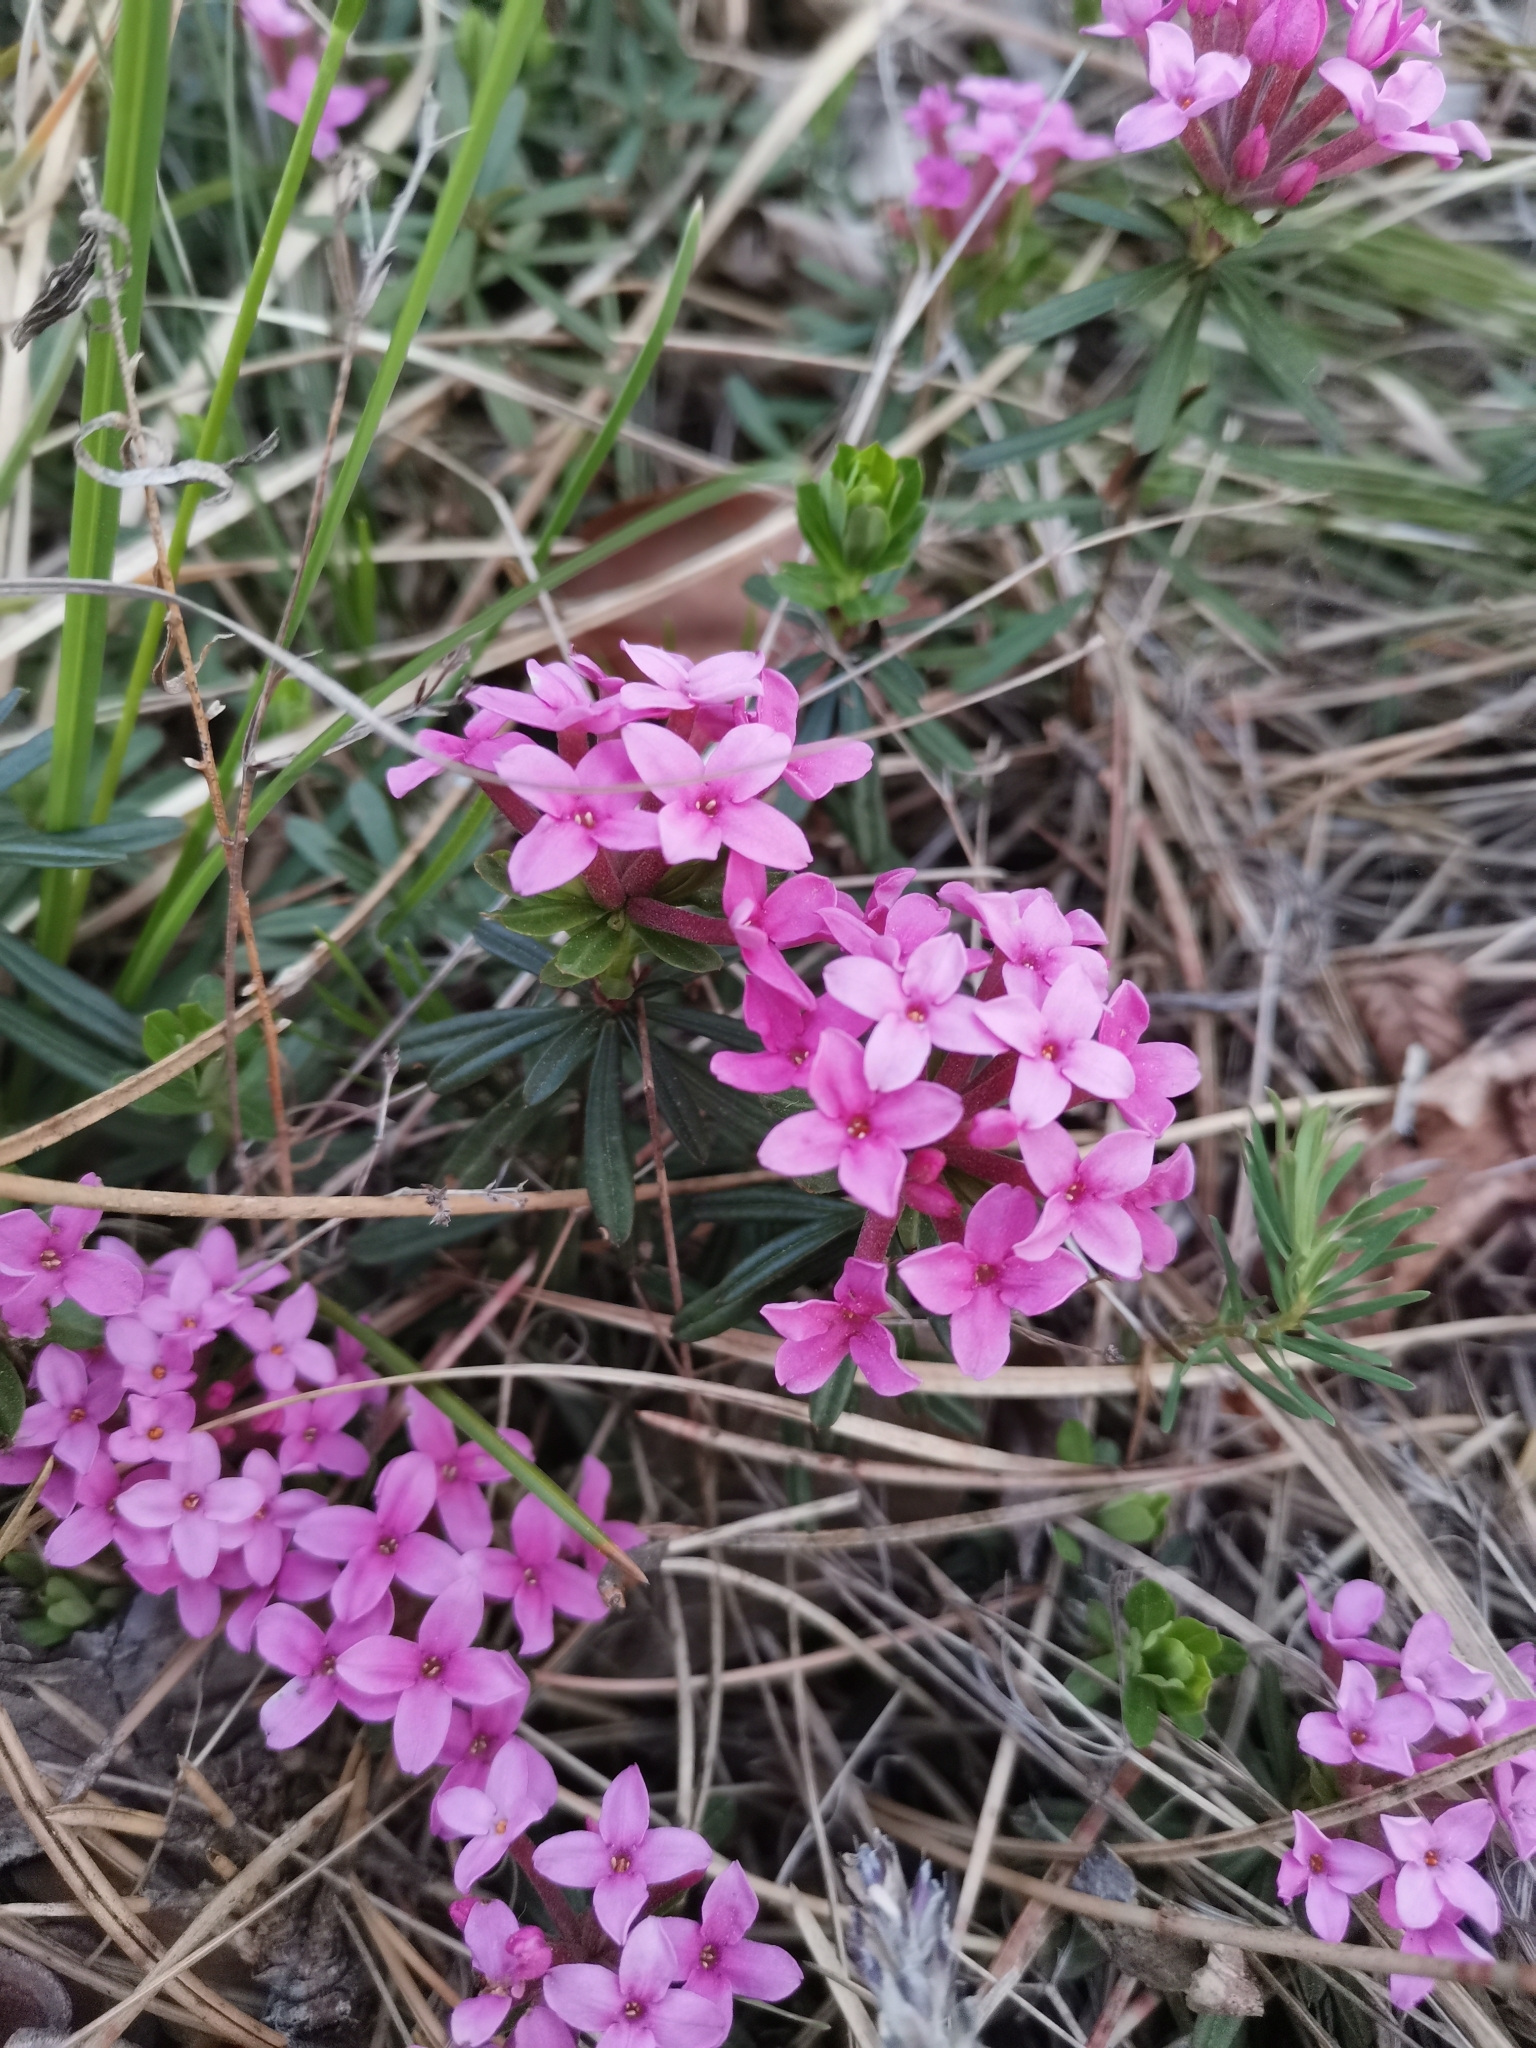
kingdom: Plantae
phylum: Tracheophyta
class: Magnoliopsida
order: Malvales
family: Thymelaeaceae
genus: Daphne
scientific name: Daphne cneorum
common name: Garland-flower
